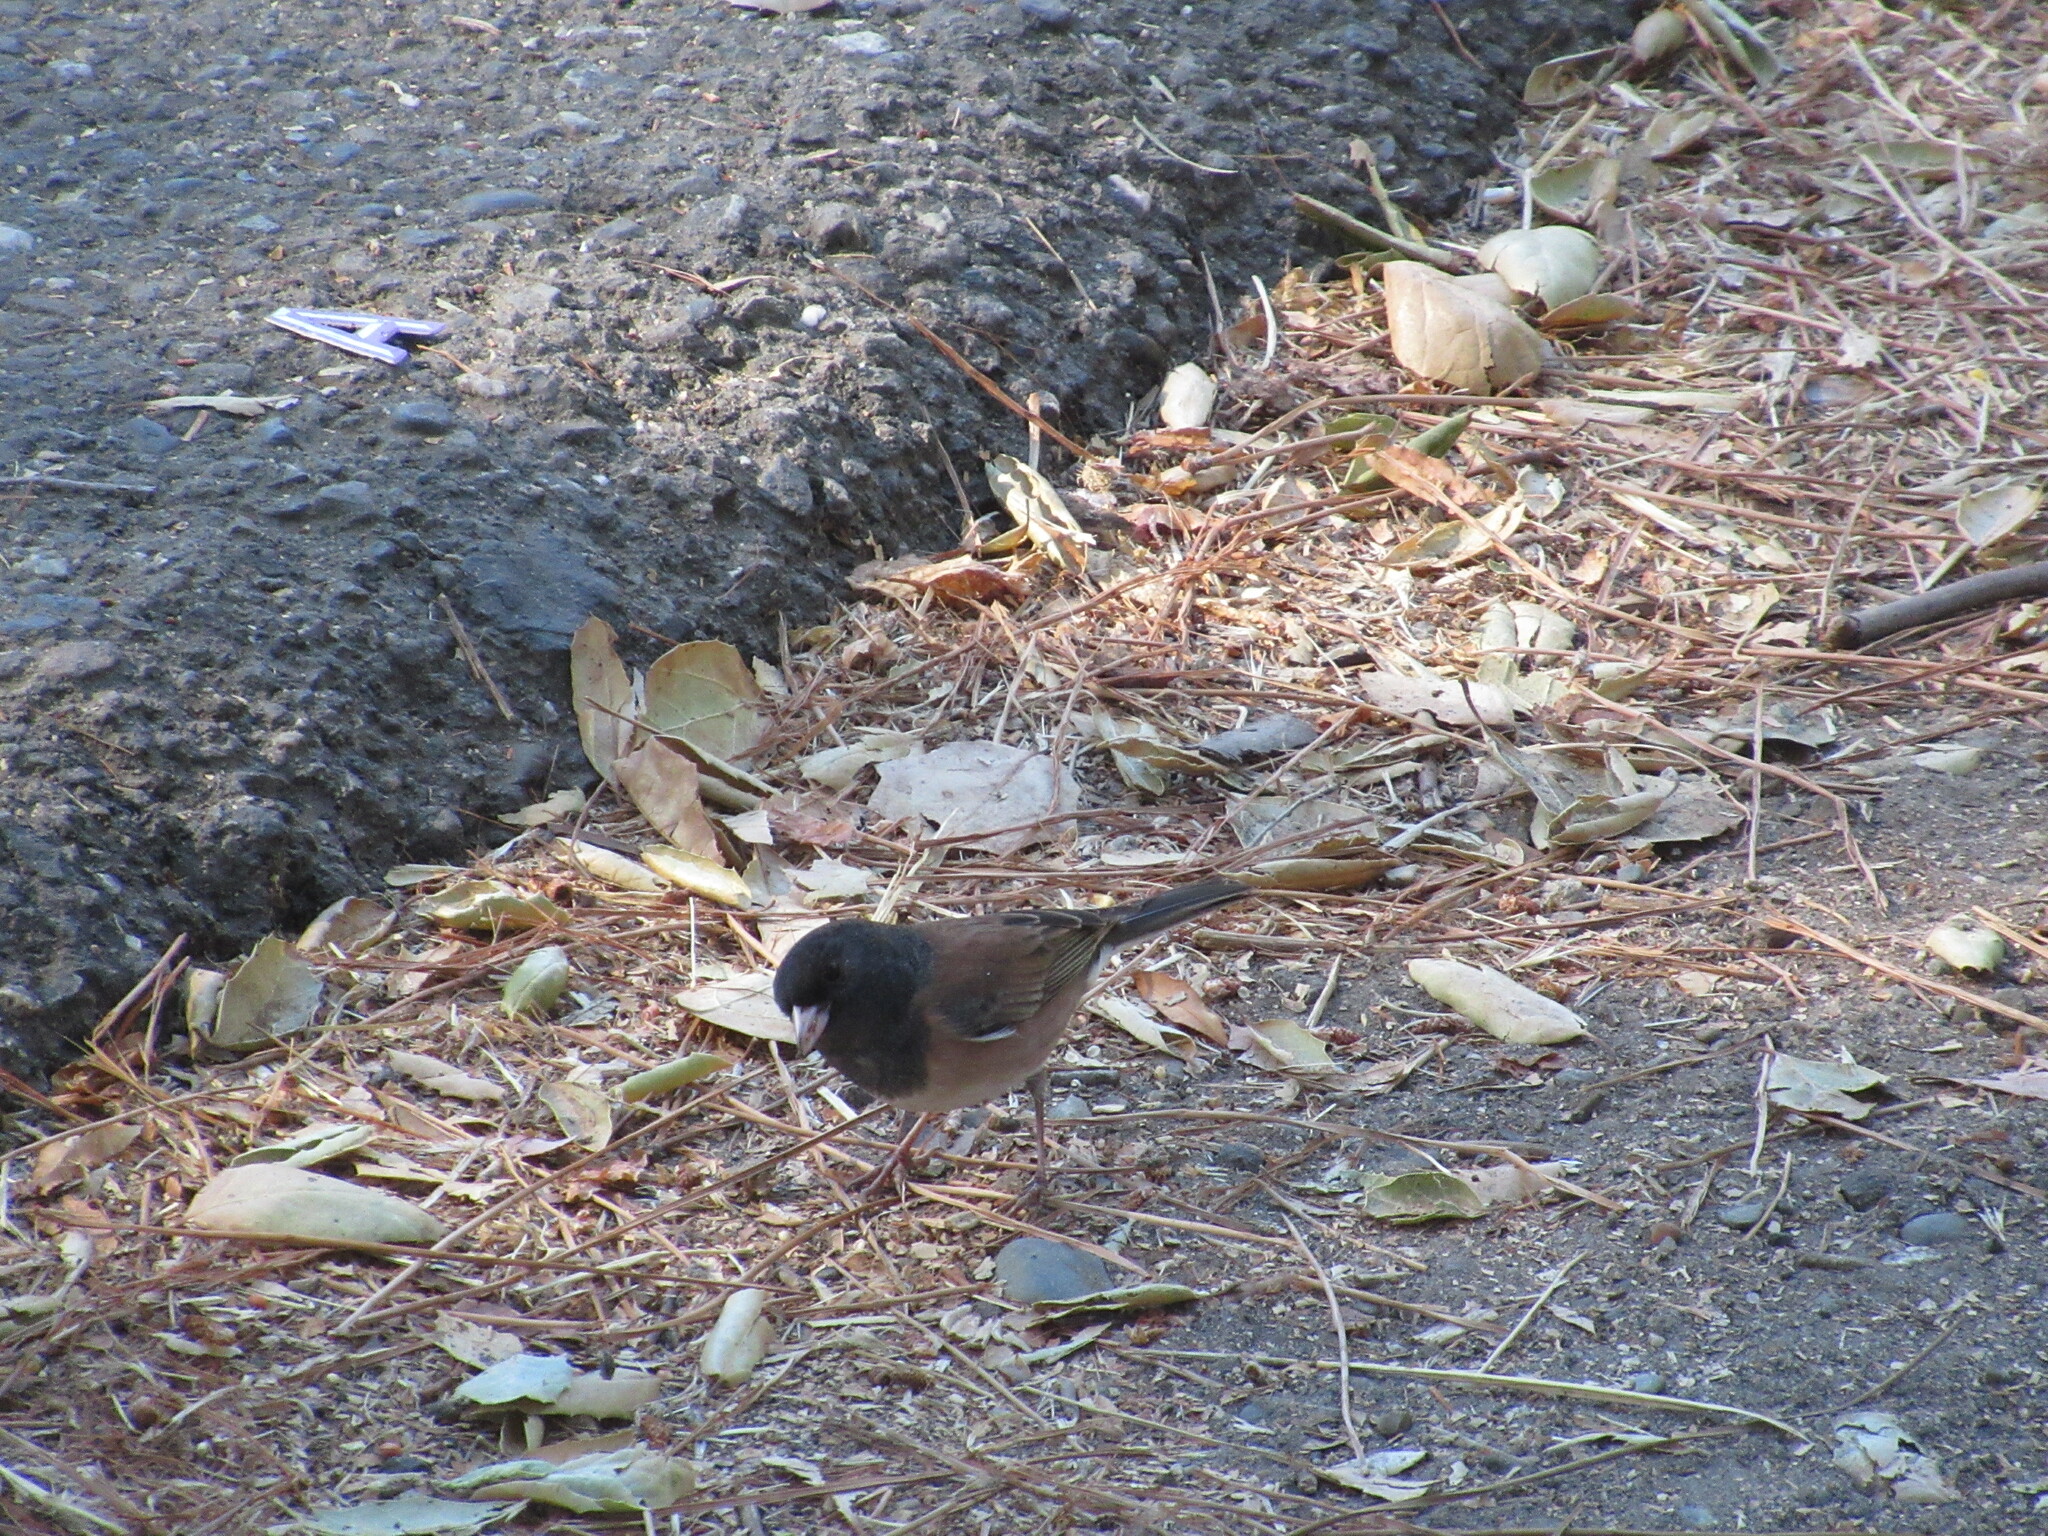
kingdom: Animalia
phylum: Chordata
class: Aves
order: Passeriformes
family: Passerellidae
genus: Junco
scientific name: Junco hyemalis
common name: Dark-eyed junco
